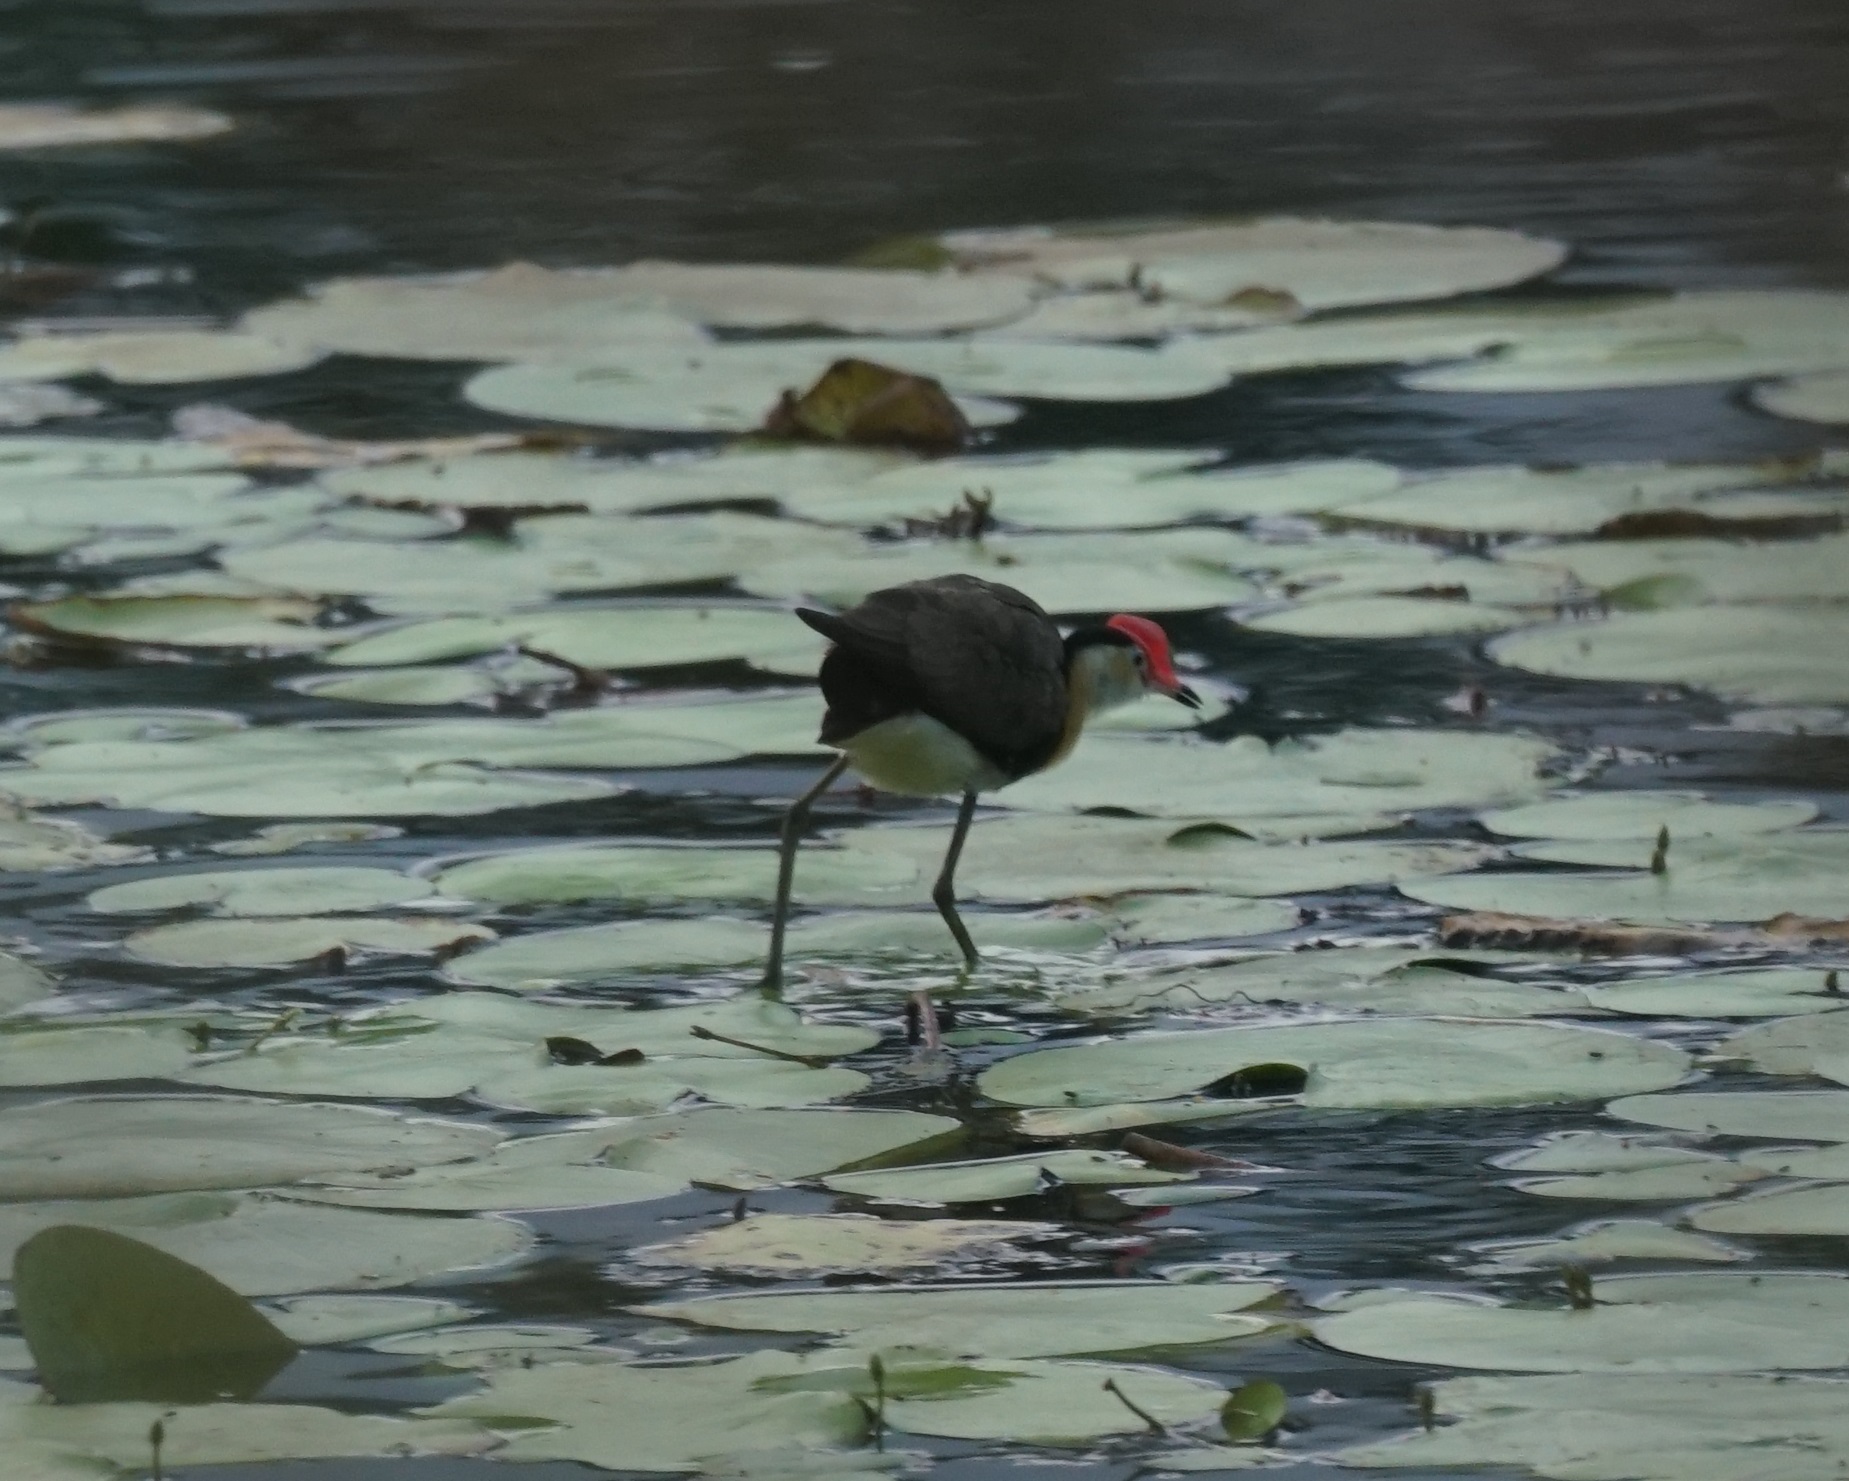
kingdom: Animalia
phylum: Chordata
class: Aves
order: Charadriiformes
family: Jacanidae
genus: Irediparra
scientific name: Irediparra gallinacea
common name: Comb-crested jacana
